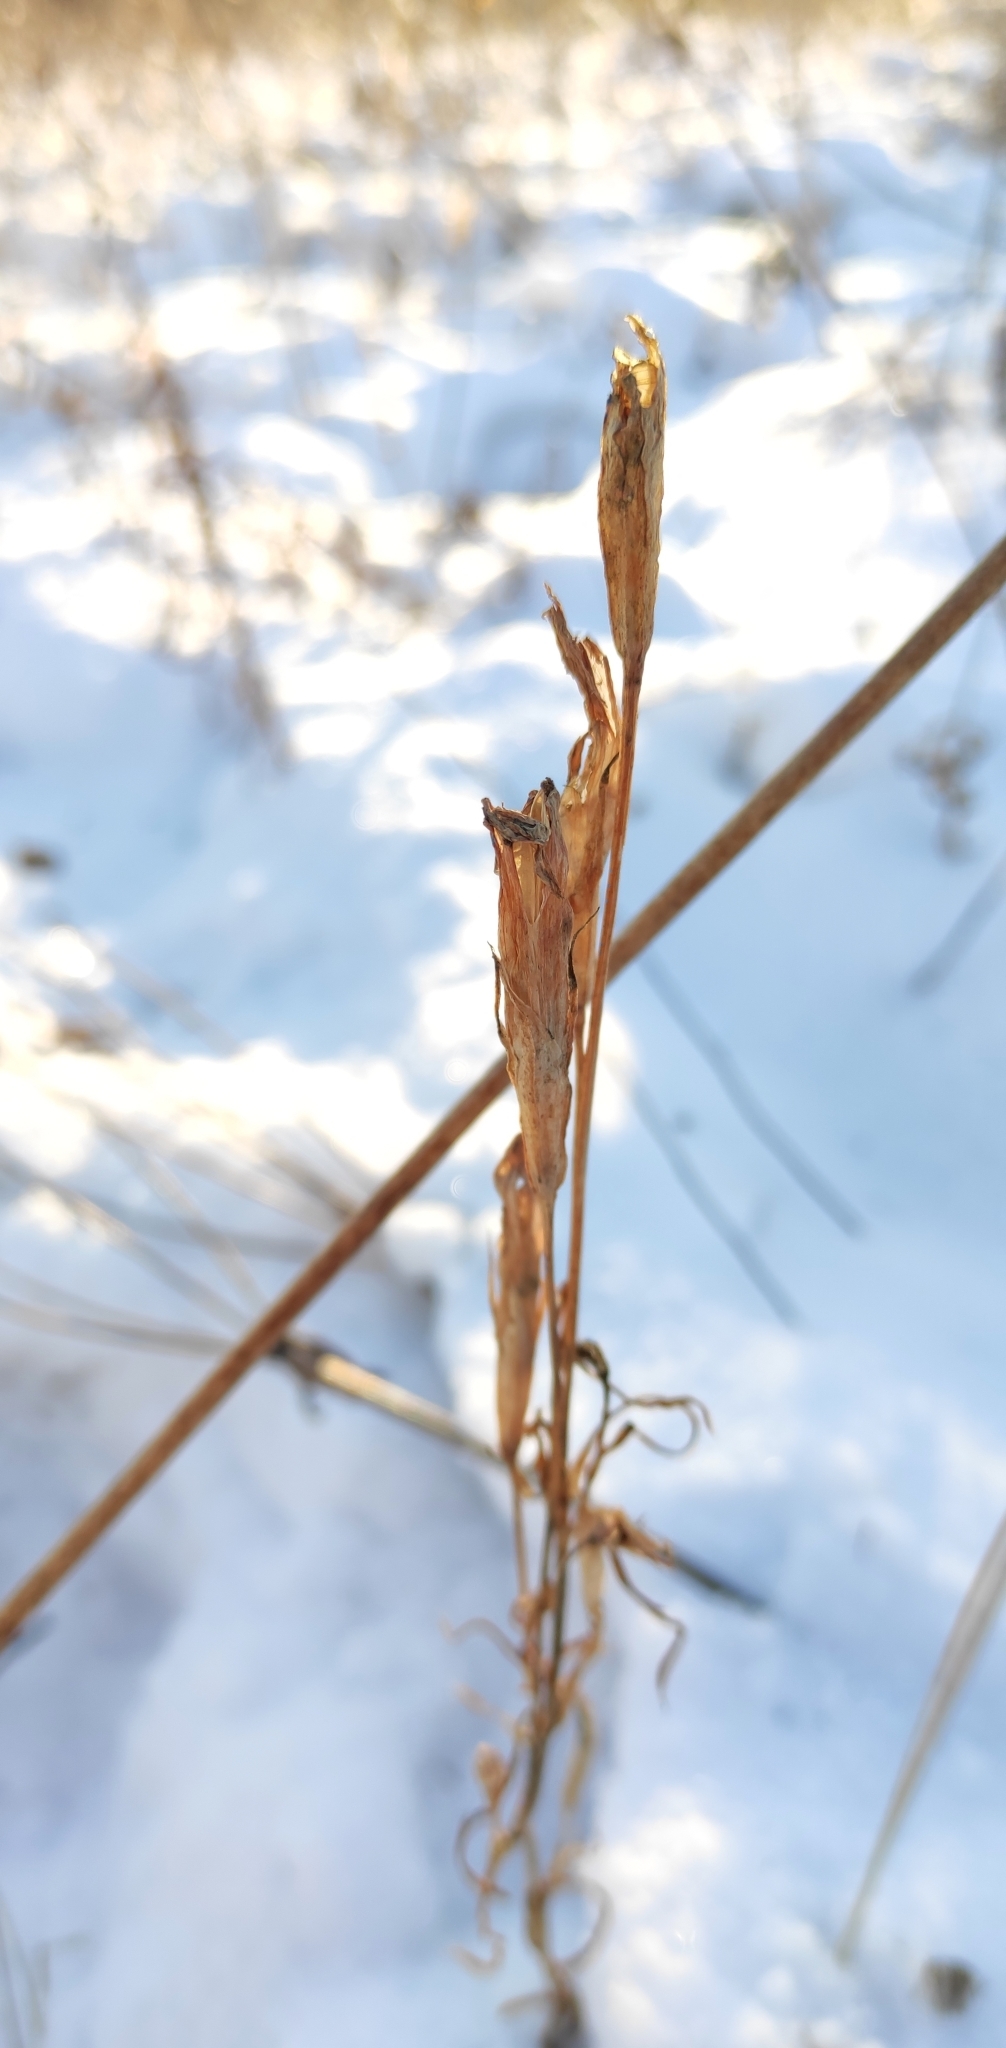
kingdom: Plantae
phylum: Tracheophyta
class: Magnoliopsida
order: Gentianales
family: Gentianaceae
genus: Gentianopsis
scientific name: Gentianopsis barbata
